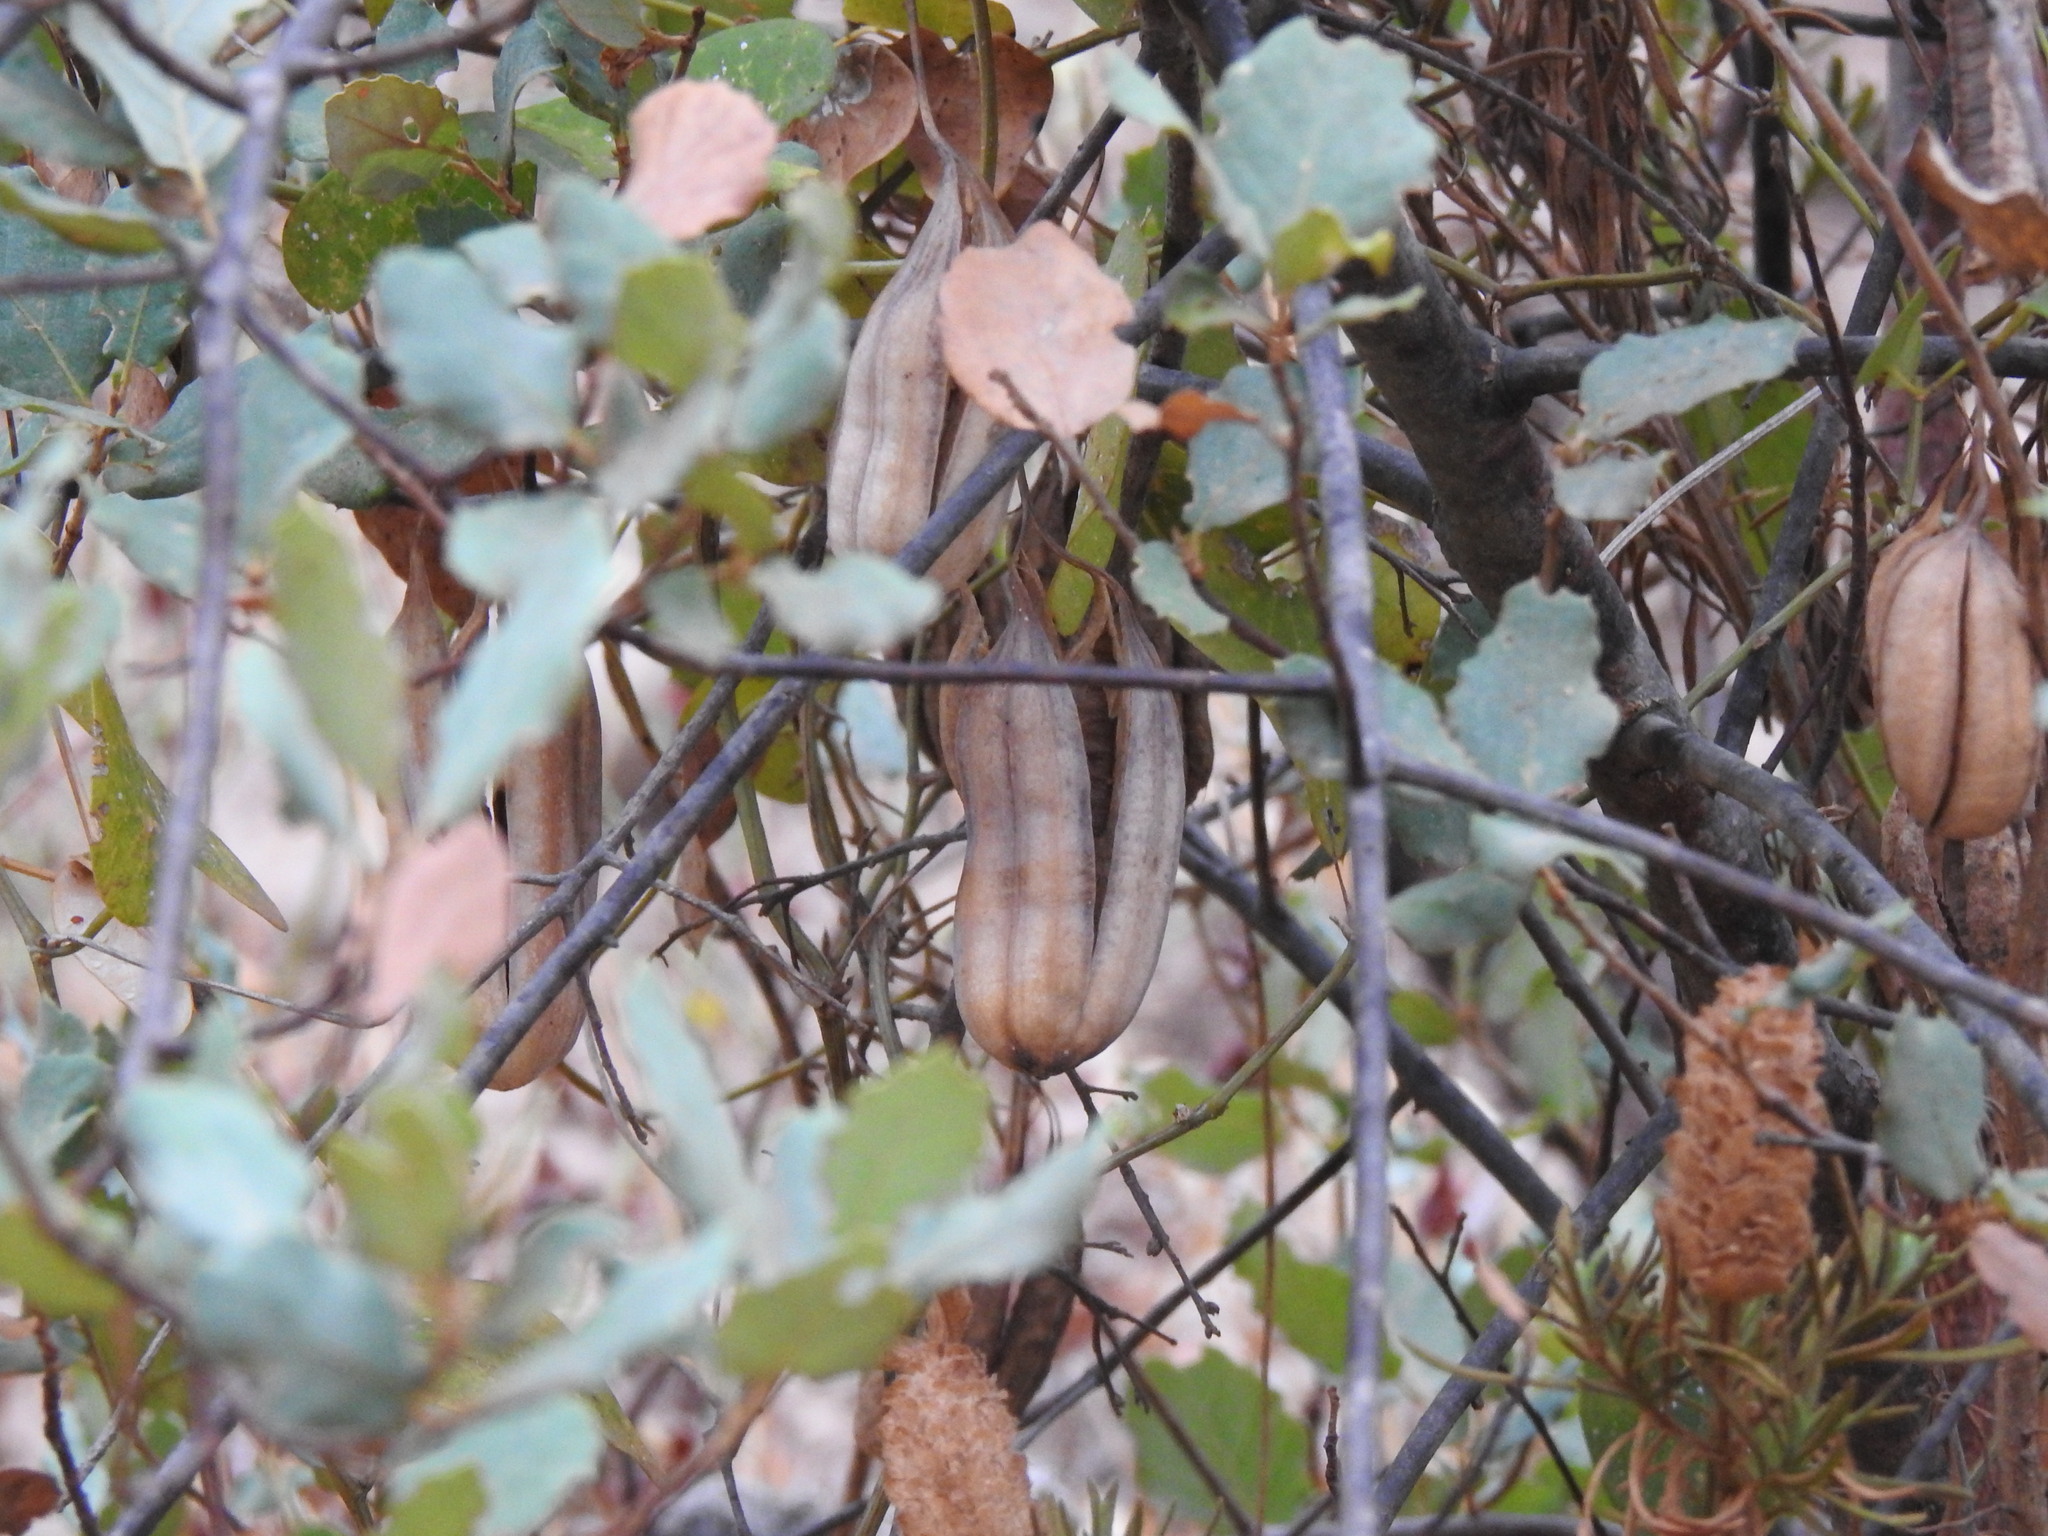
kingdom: Plantae
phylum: Tracheophyta
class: Magnoliopsida
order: Piperales
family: Aristolochiaceae
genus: Aristolochia
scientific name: Aristolochia baetica
